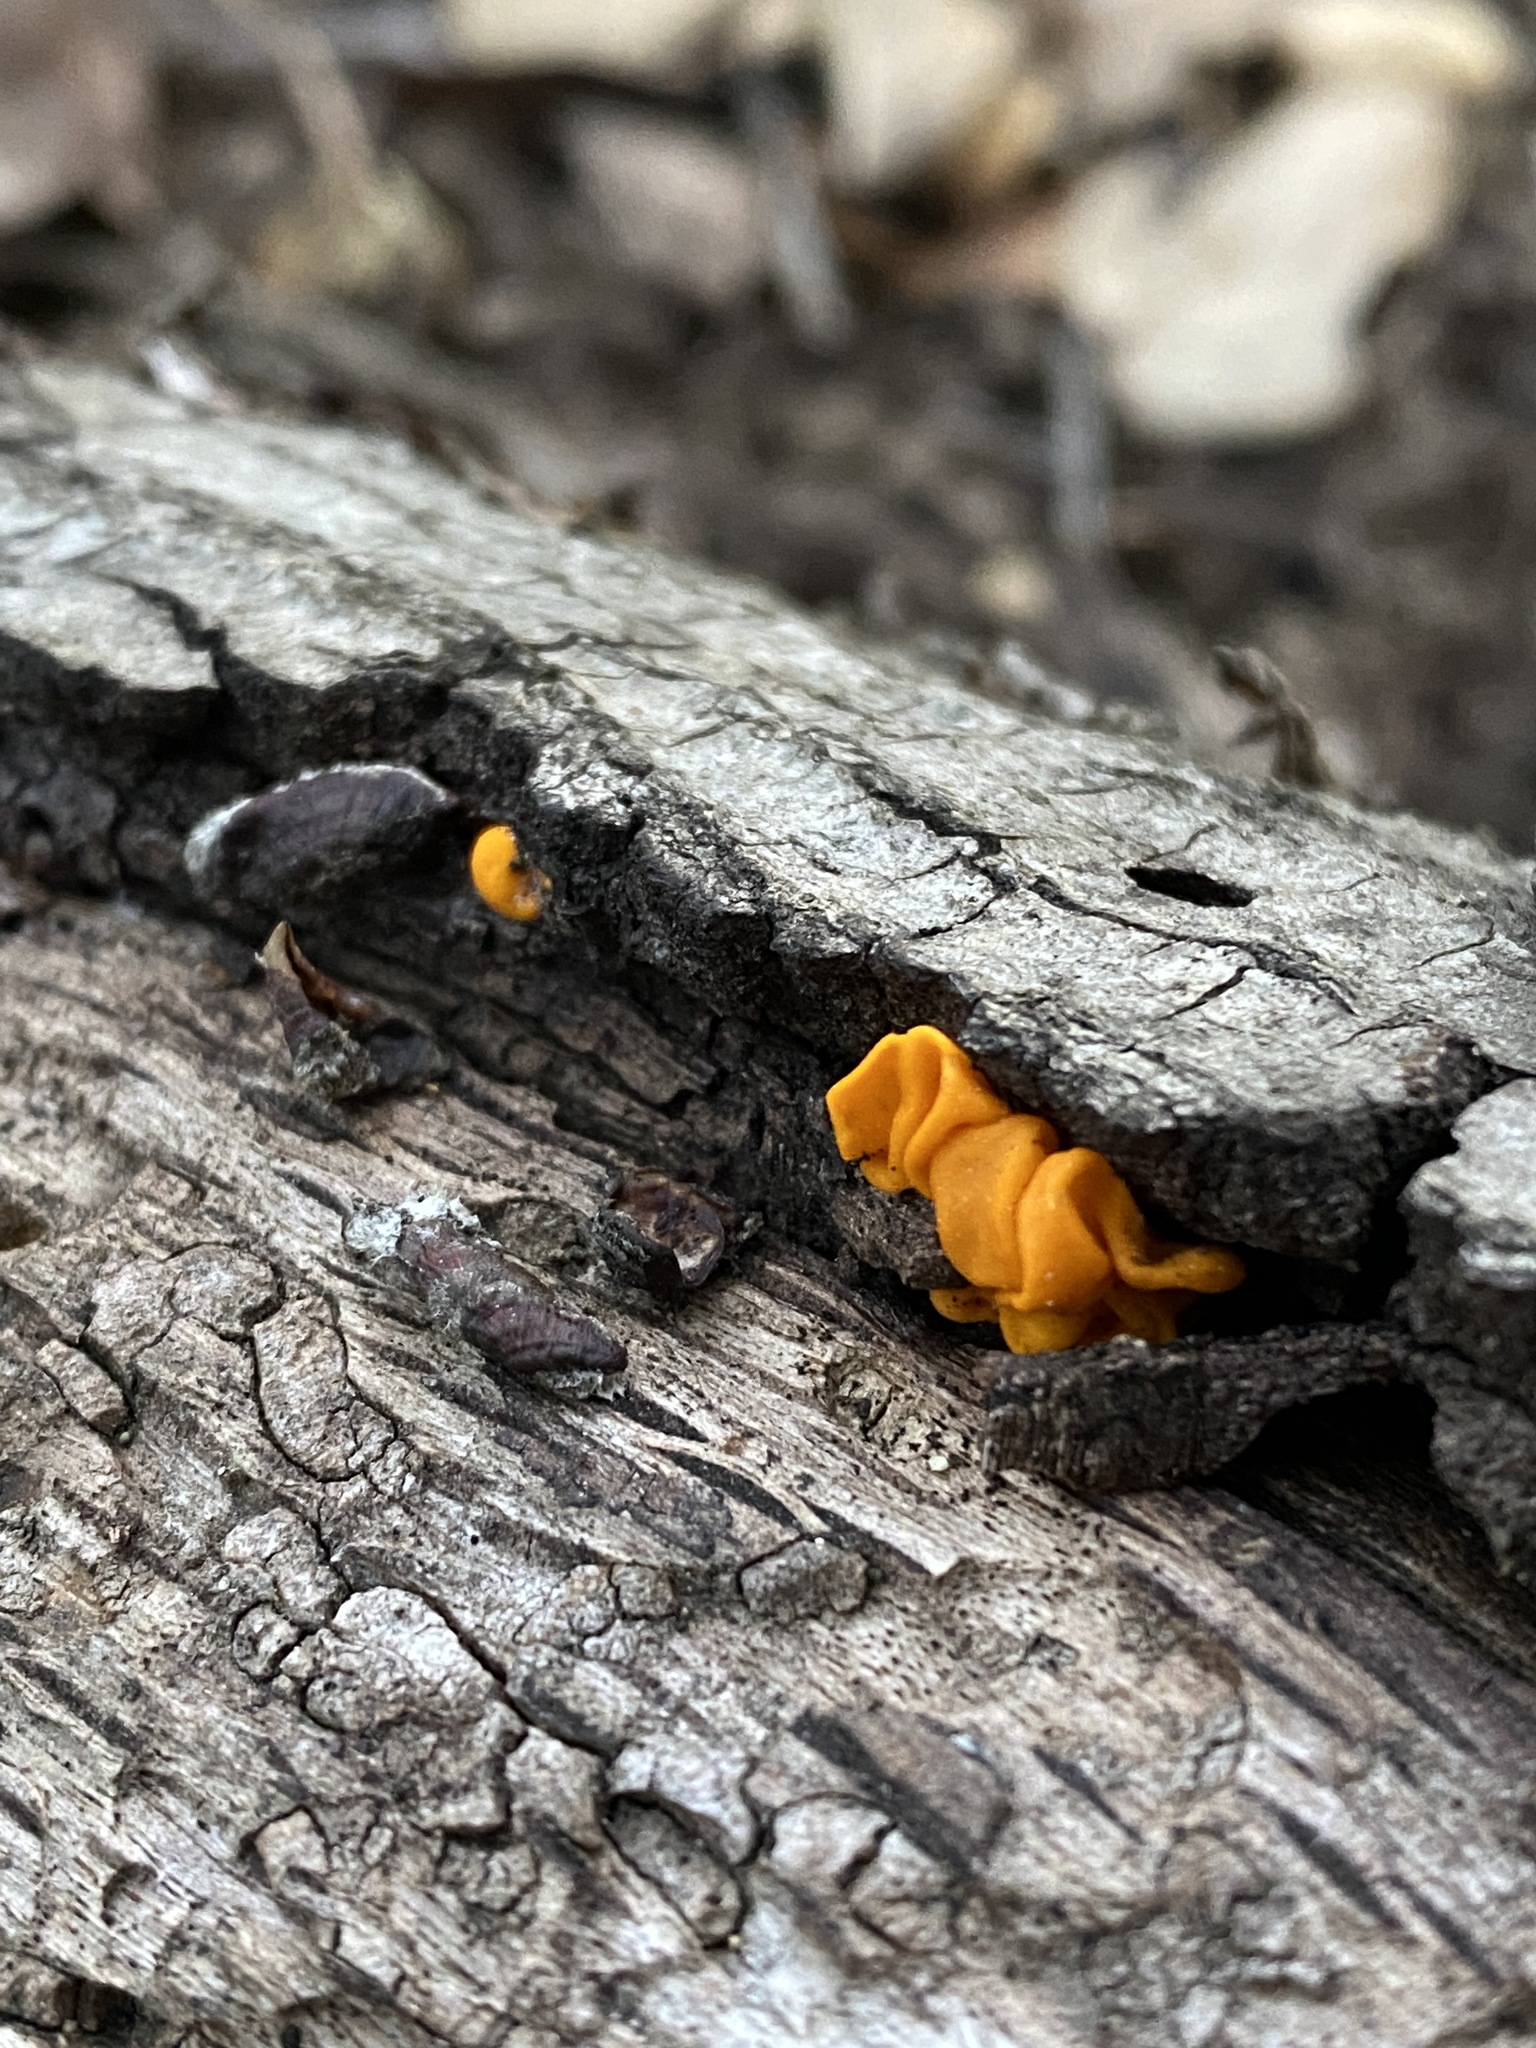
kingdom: Fungi
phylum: Basidiomycota
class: Tremellomycetes
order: Tremellales
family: Tremellaceae
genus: Tremella
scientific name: Tremella mesenterica
